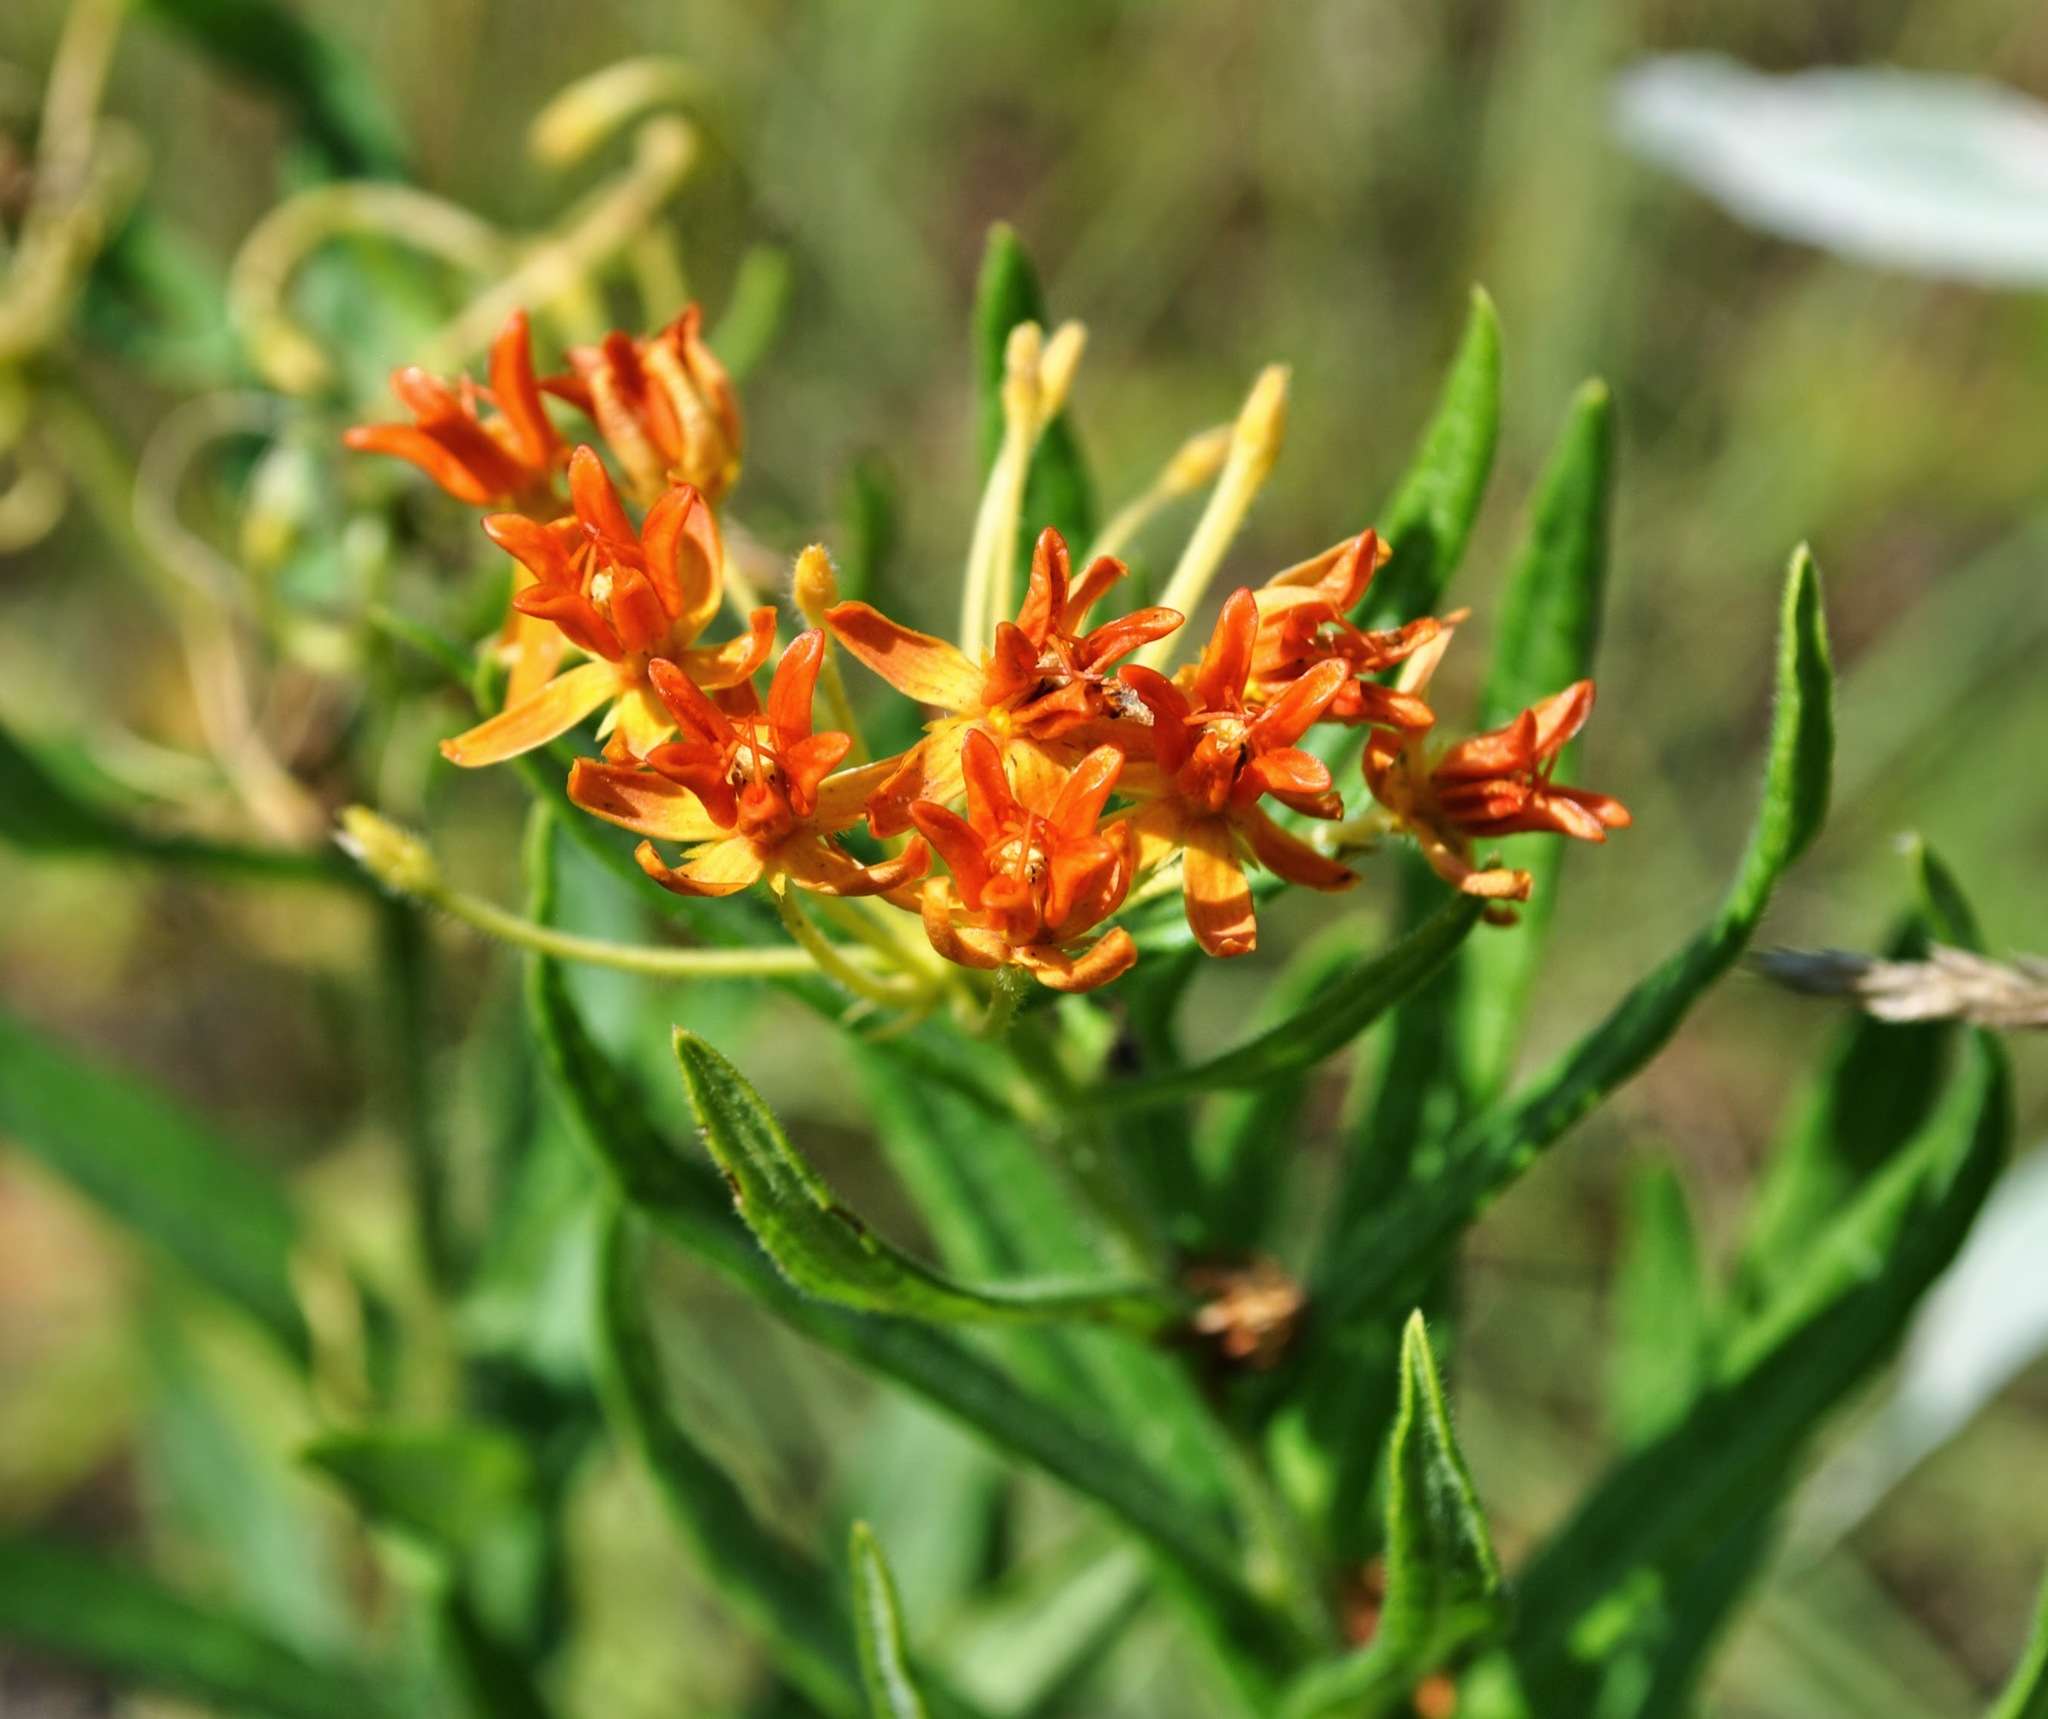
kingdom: Plantae
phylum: Tracheophyta
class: Magnoliopsida
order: Gentianales
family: Apocynaceae
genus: Asclepias
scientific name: Asclepias tuberosa
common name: Butterfly milkweed
